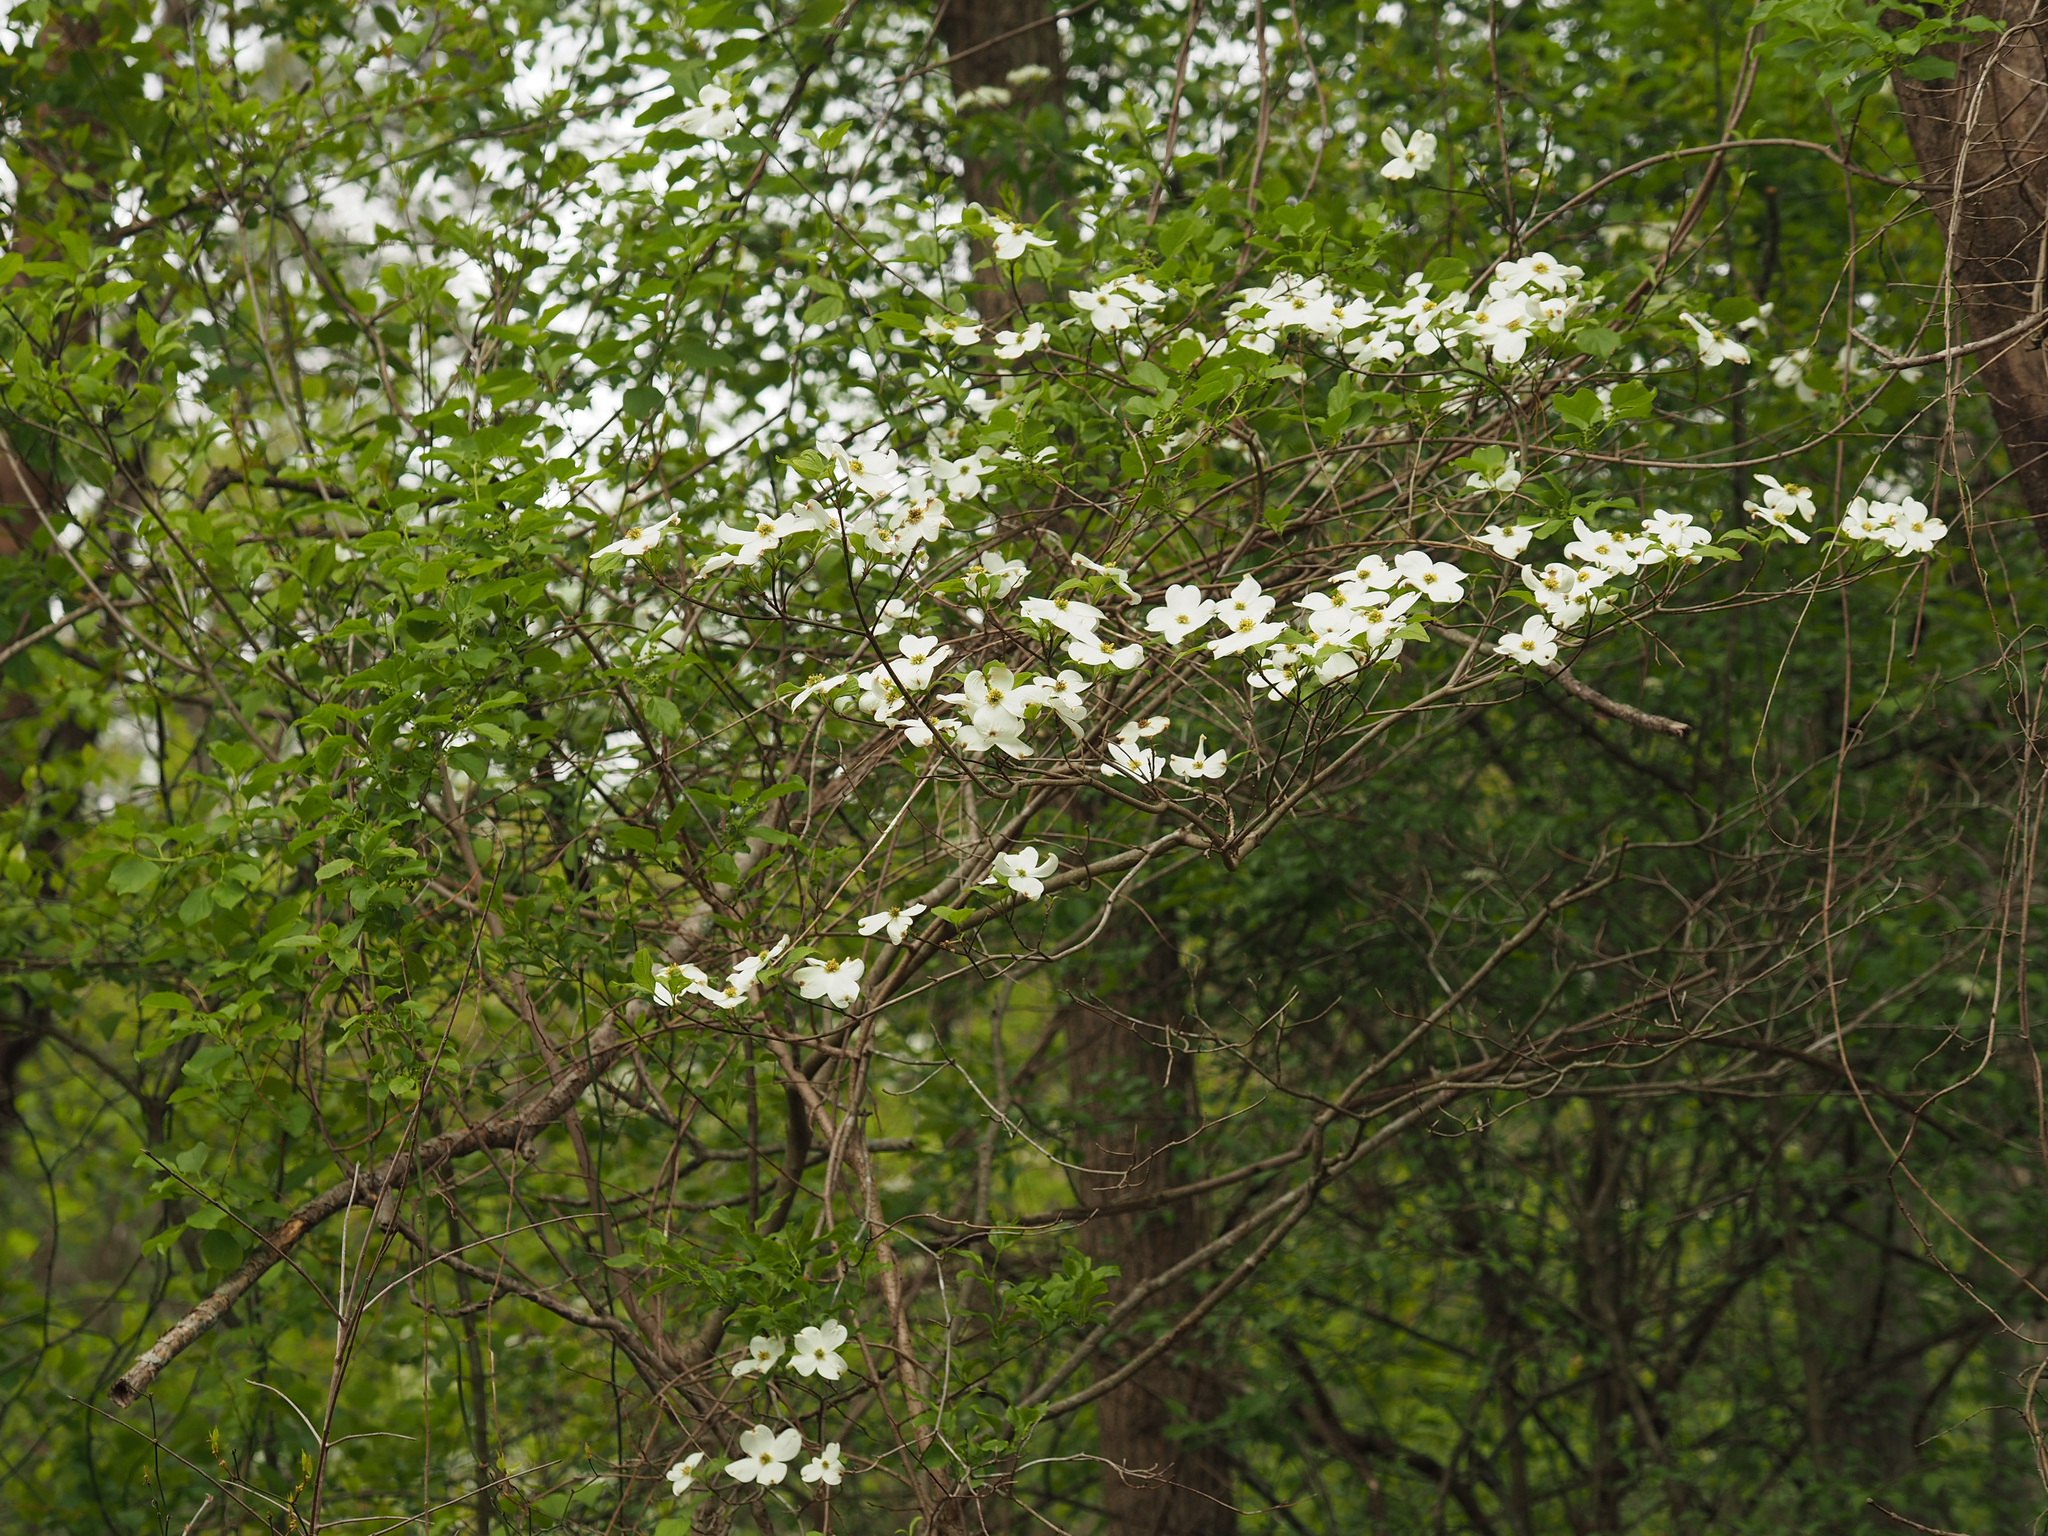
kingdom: Plantae
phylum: Tracheophyta
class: Magnoliopsida
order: Cornales
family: Cornaceae
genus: Cornus
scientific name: Cornus florida
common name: Flowering dogwood
